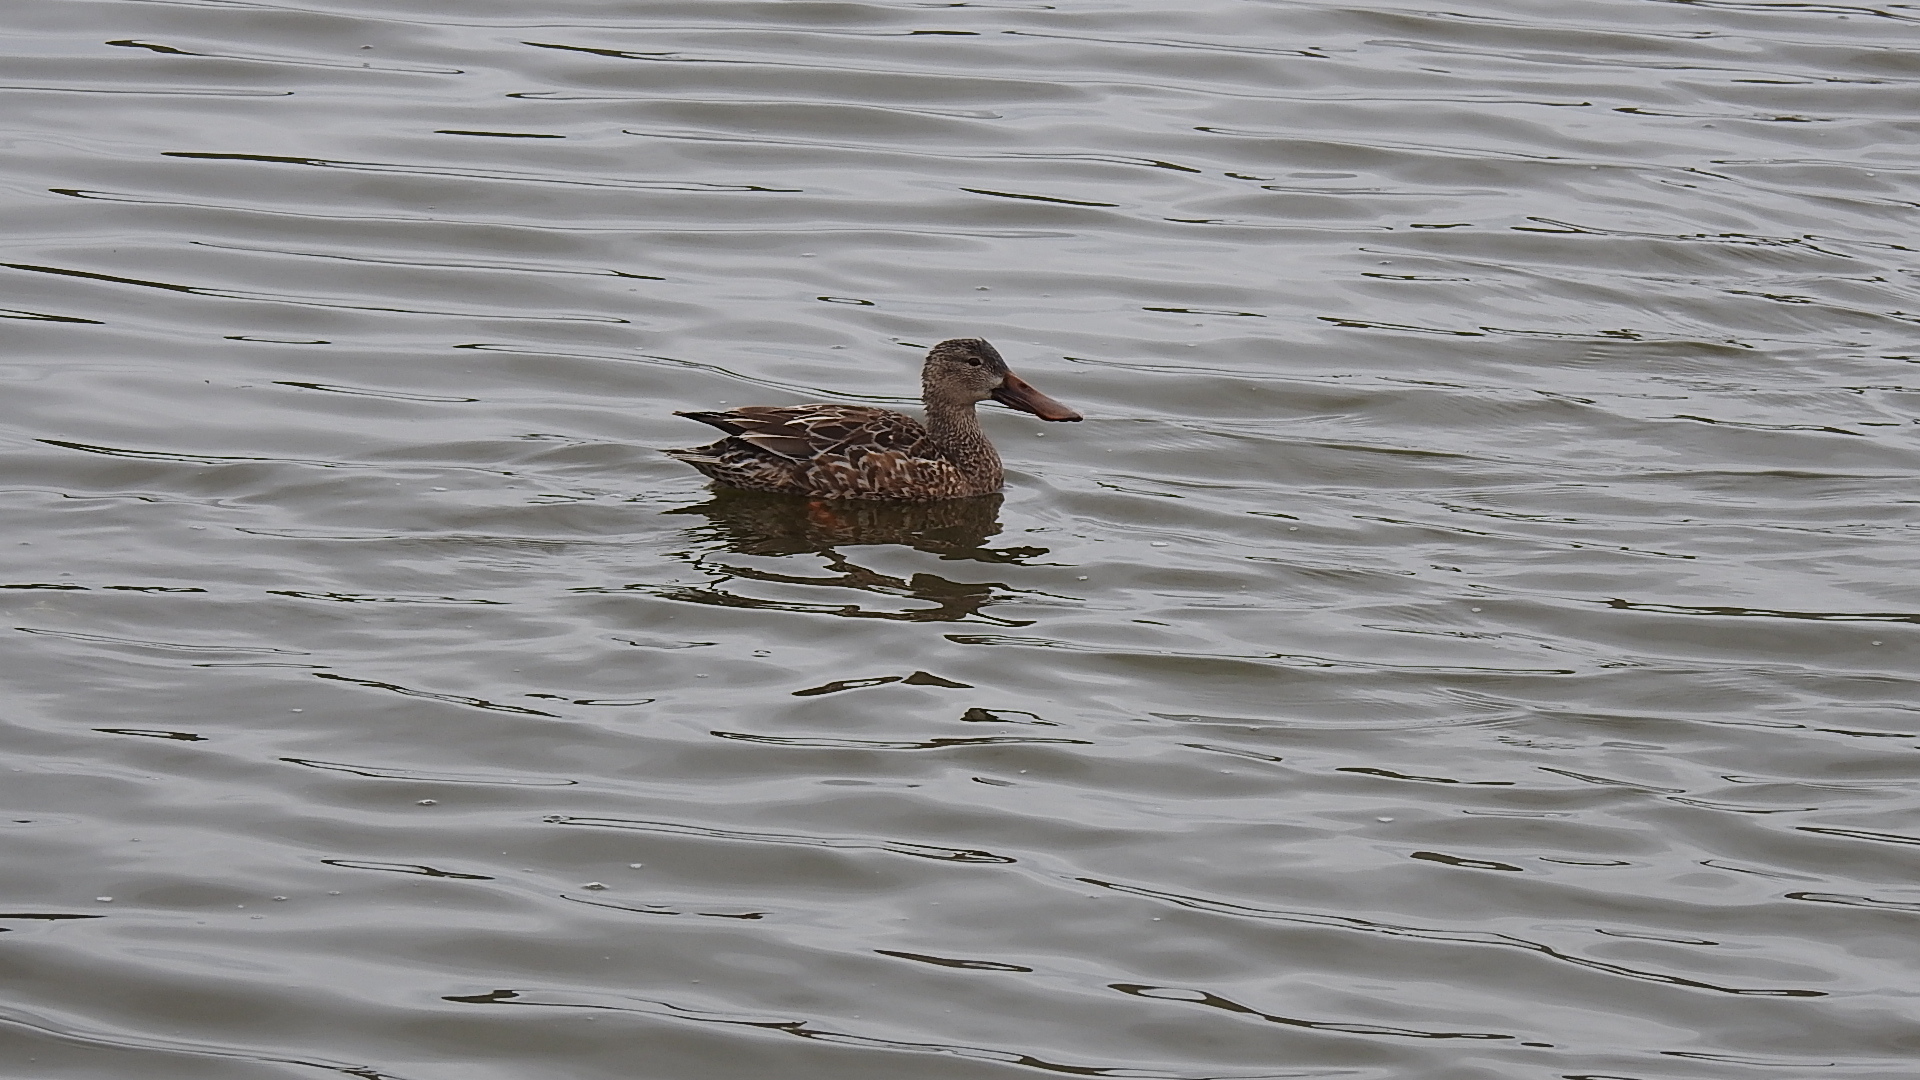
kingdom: Animalia
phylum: Chordata
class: Aves
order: Anseriformes
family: Anatidae
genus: Spatula
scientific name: Spatula clypeata
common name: Northern shoveler
